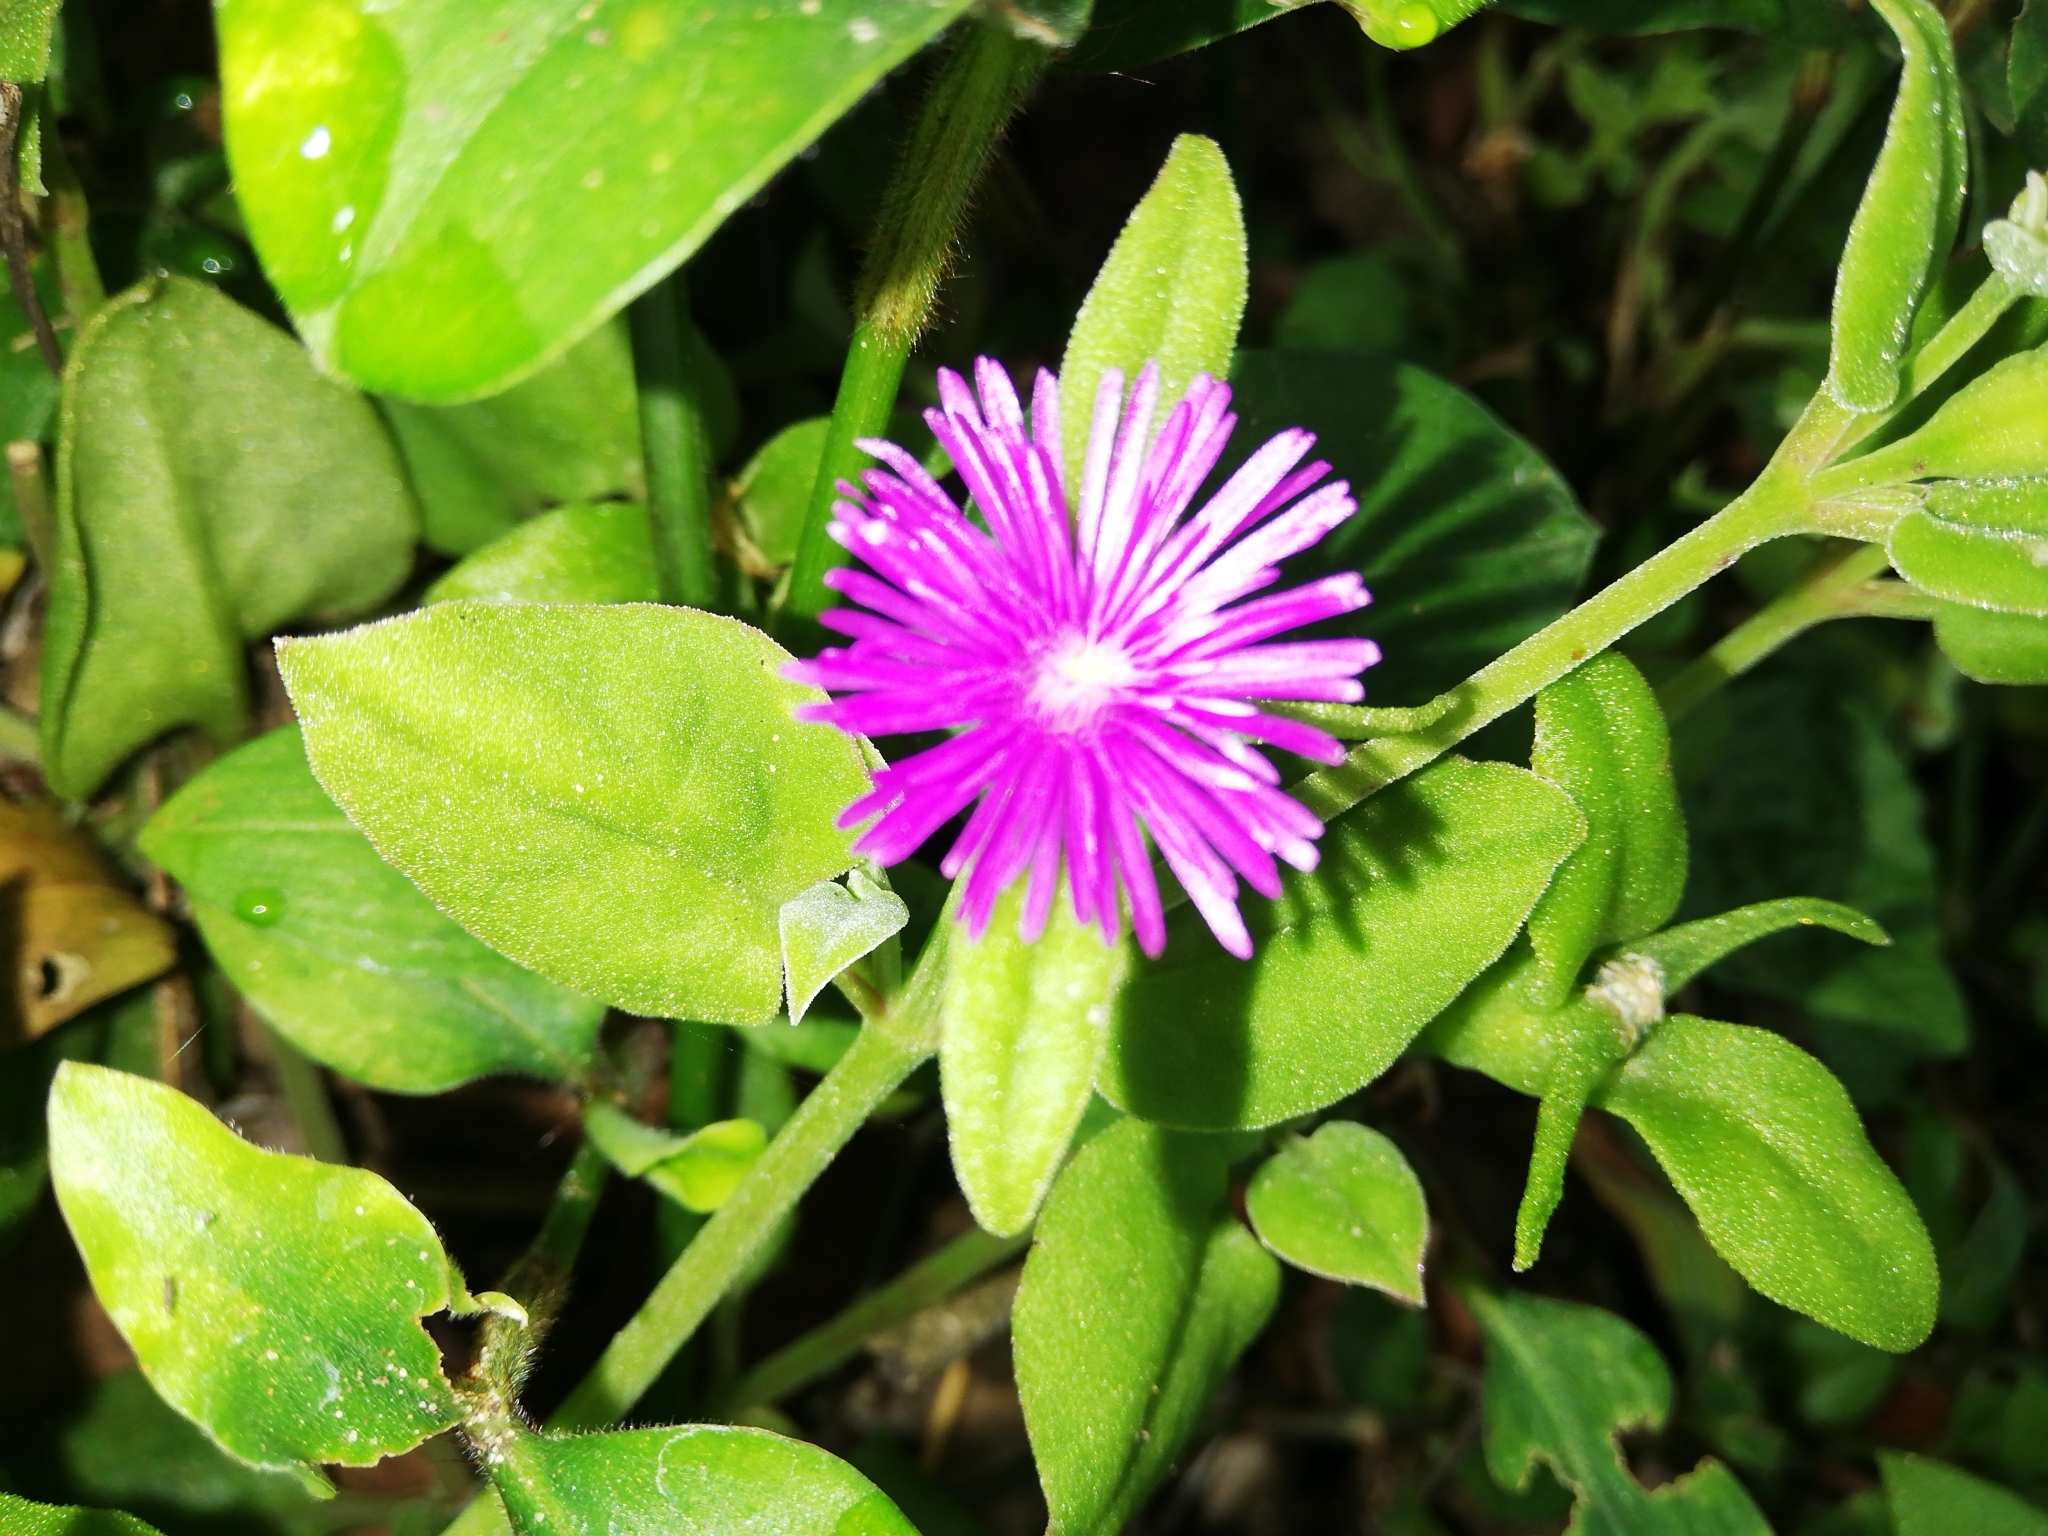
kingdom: Plantae
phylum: Tracheophyta
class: Magnoliopsida
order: Caryophyllales
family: Aizoaceae
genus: Mesembryanthemum
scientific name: Mesembryanthemum cordifolium
